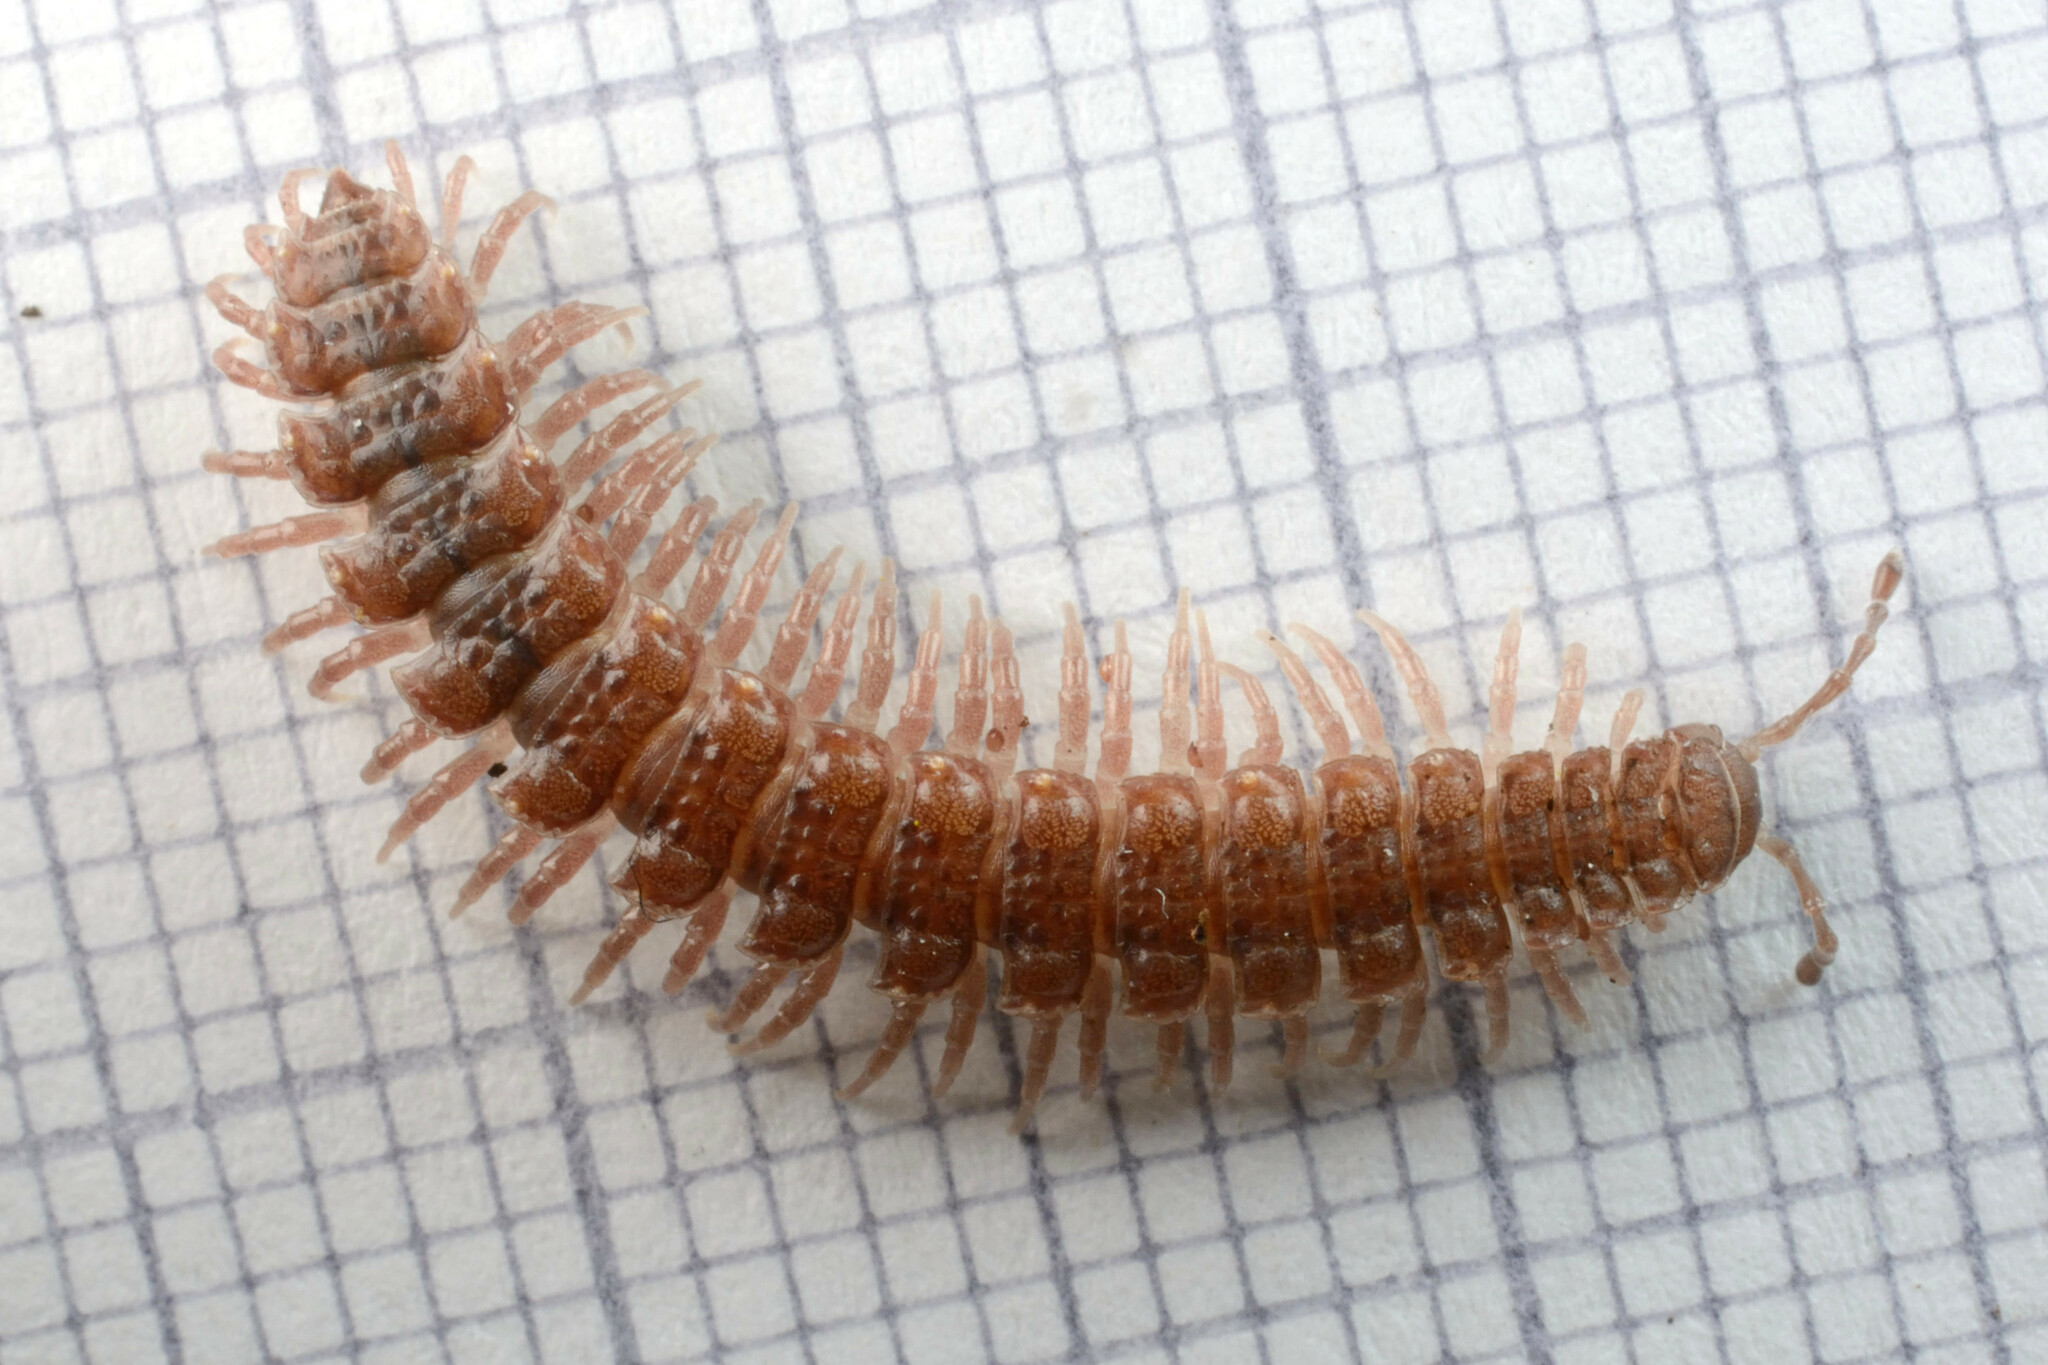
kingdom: Animalia
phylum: Arthropoda
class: Diplopoda
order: Polydesmida
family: Polydesmidae
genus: Polydesmus
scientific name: Polydesmus angustus
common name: Flat millipede
